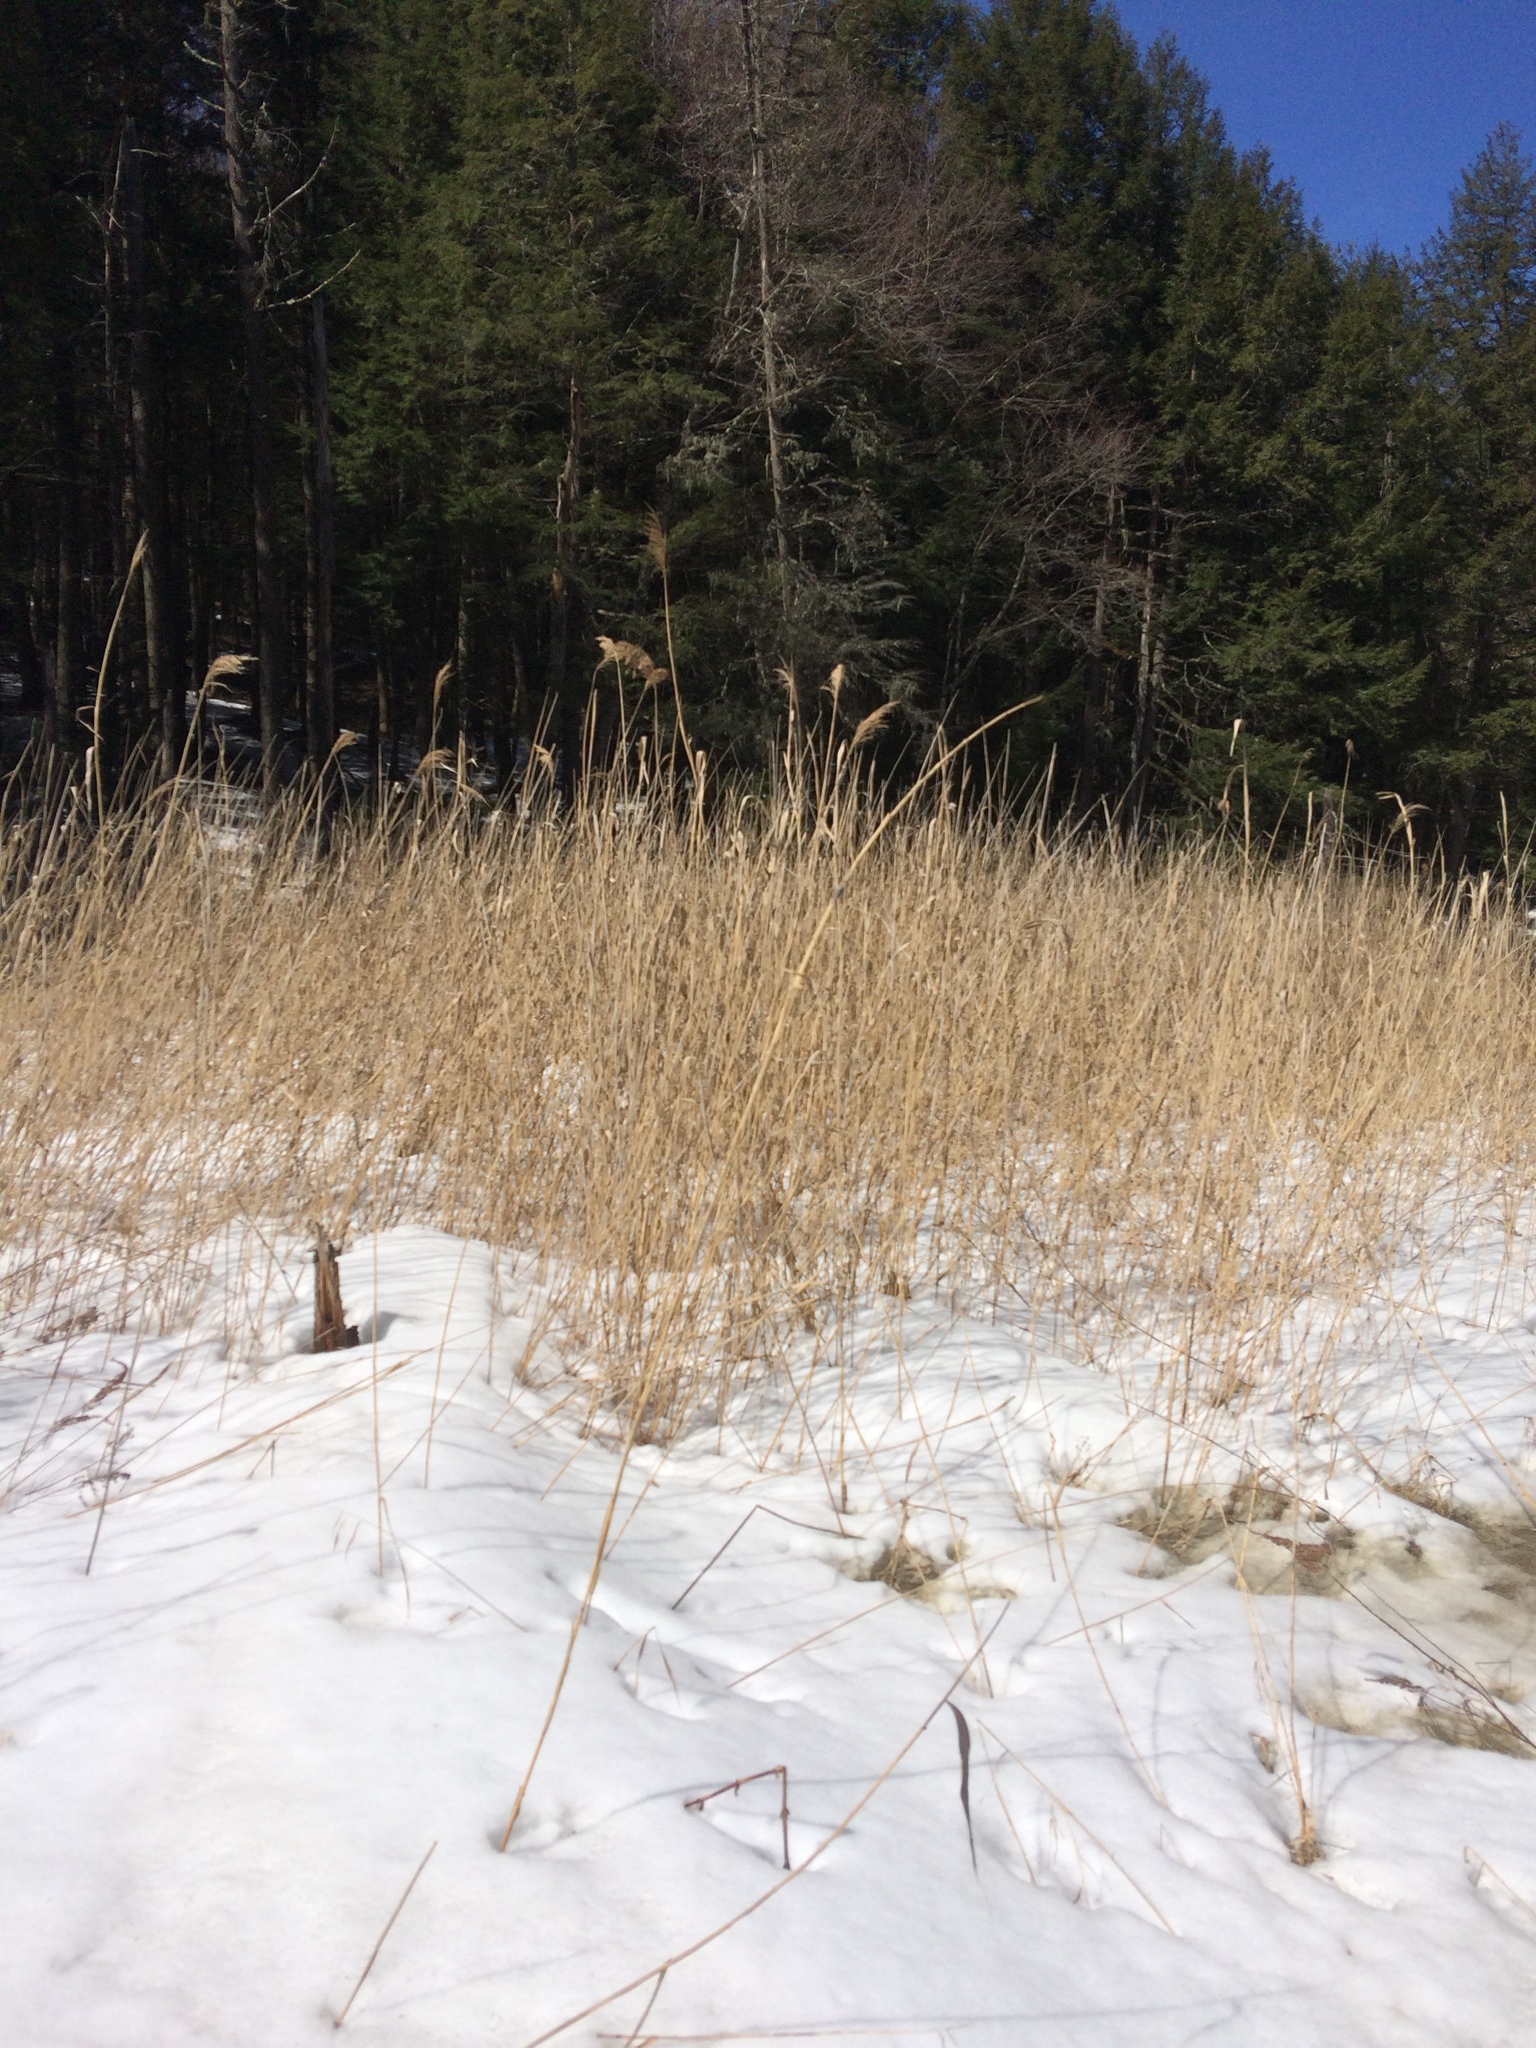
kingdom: Plantae
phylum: Tracheophyta
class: Liliopsida
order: Poales
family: Poaceae
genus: Phragmites
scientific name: Phragmites australis
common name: Common reed
